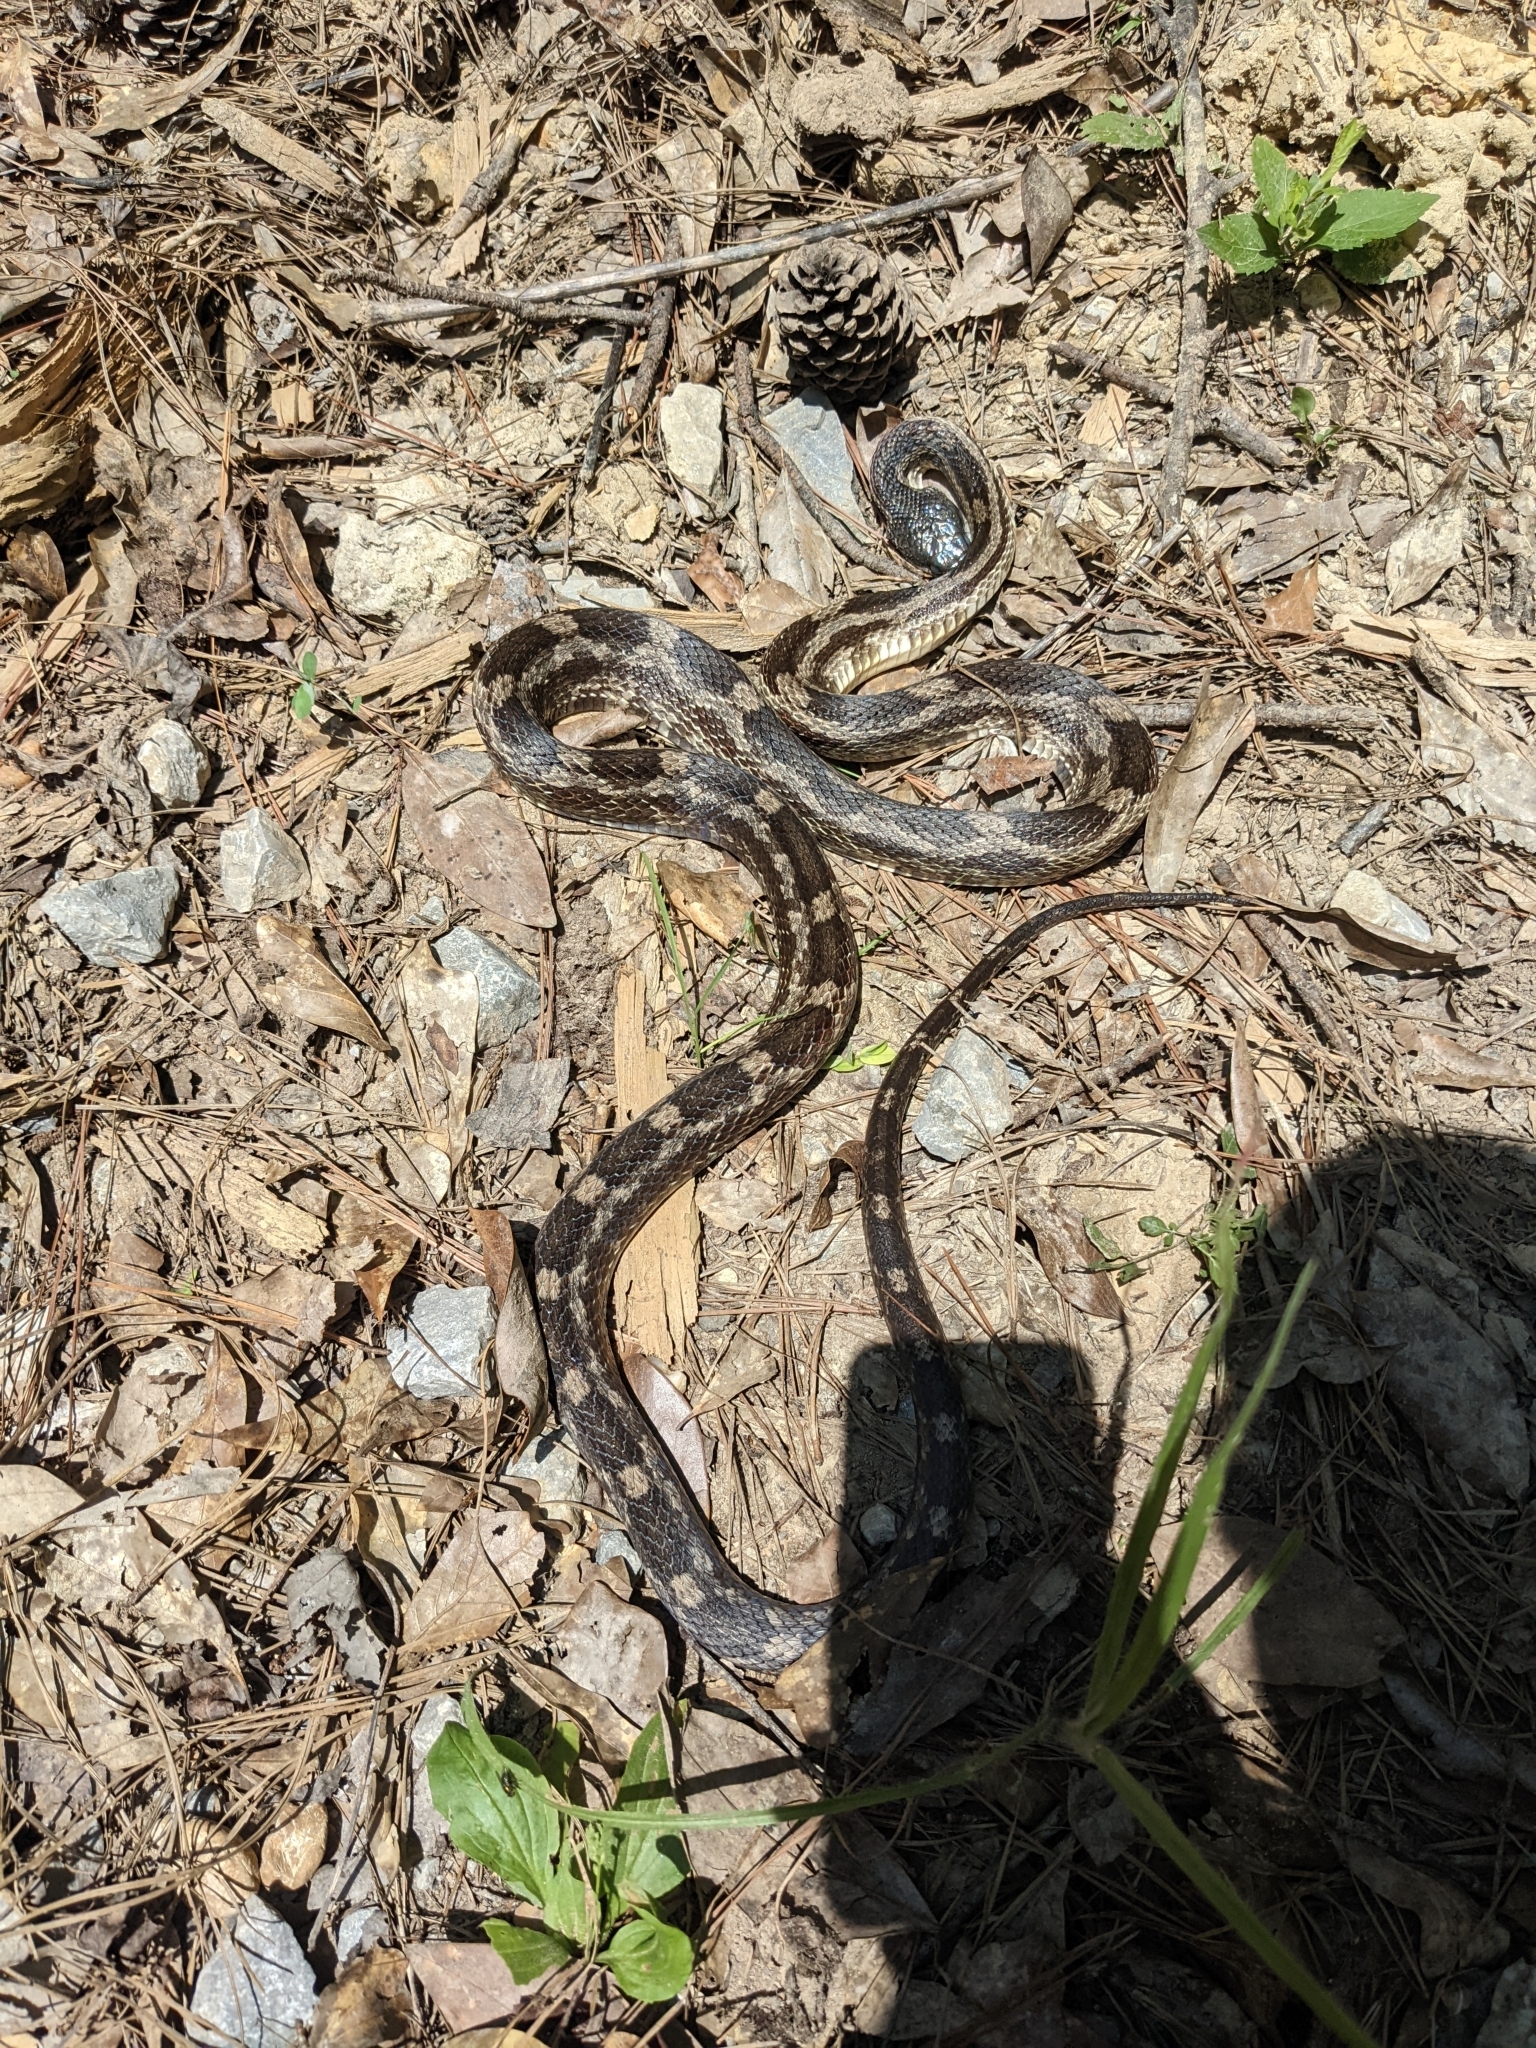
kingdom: Animalia
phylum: Chordata
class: Squamata
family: Colubridae
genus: Pantherophis
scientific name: Pantherophis spiloides
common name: Gray rat snake
